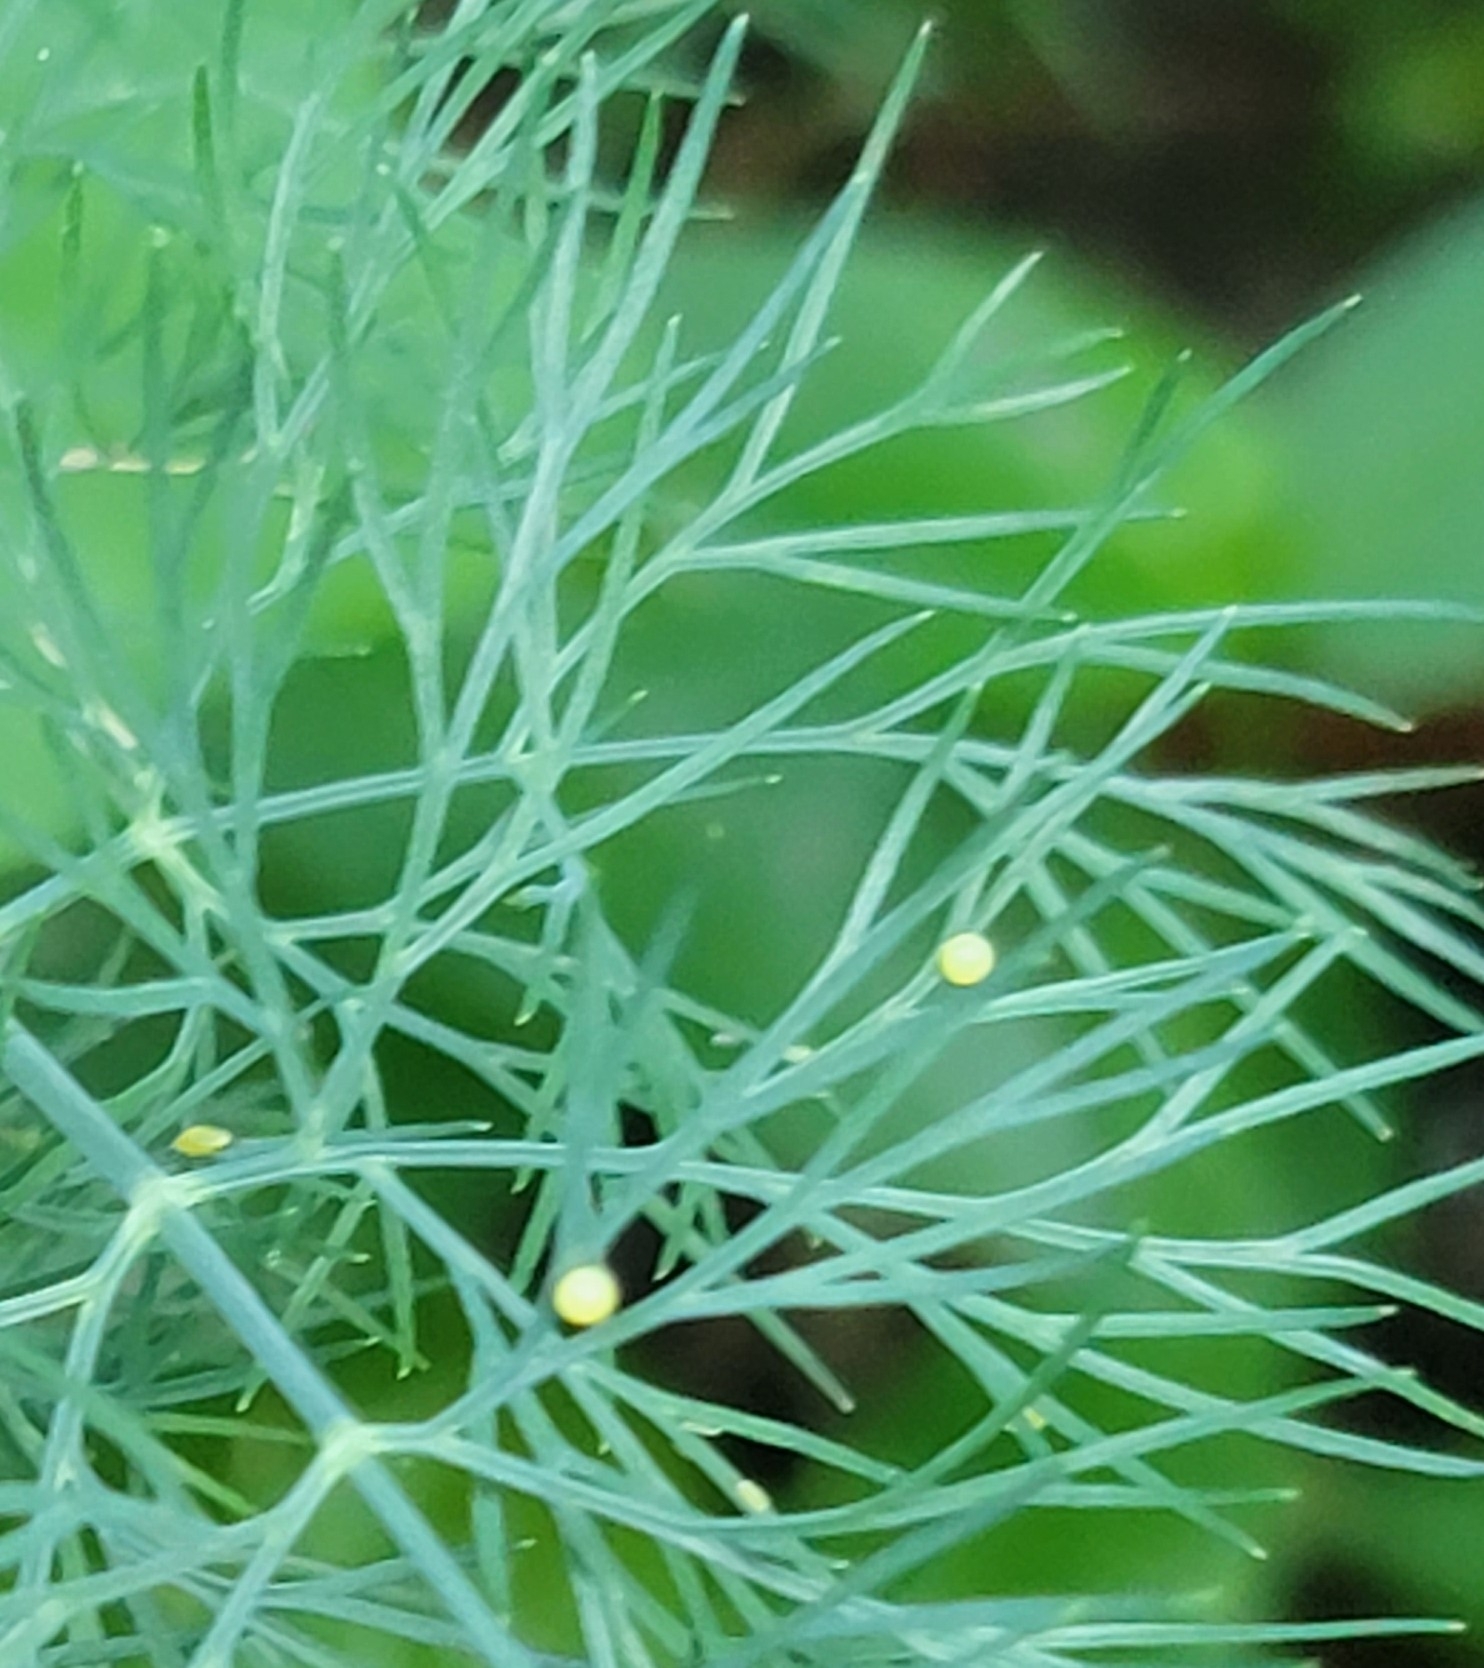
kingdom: Animalia
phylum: Arthropoda
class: Insecta
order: Lepidoptera
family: Papilionidae
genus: Papilio
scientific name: Papilio polyxenes
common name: Black swallowtail
